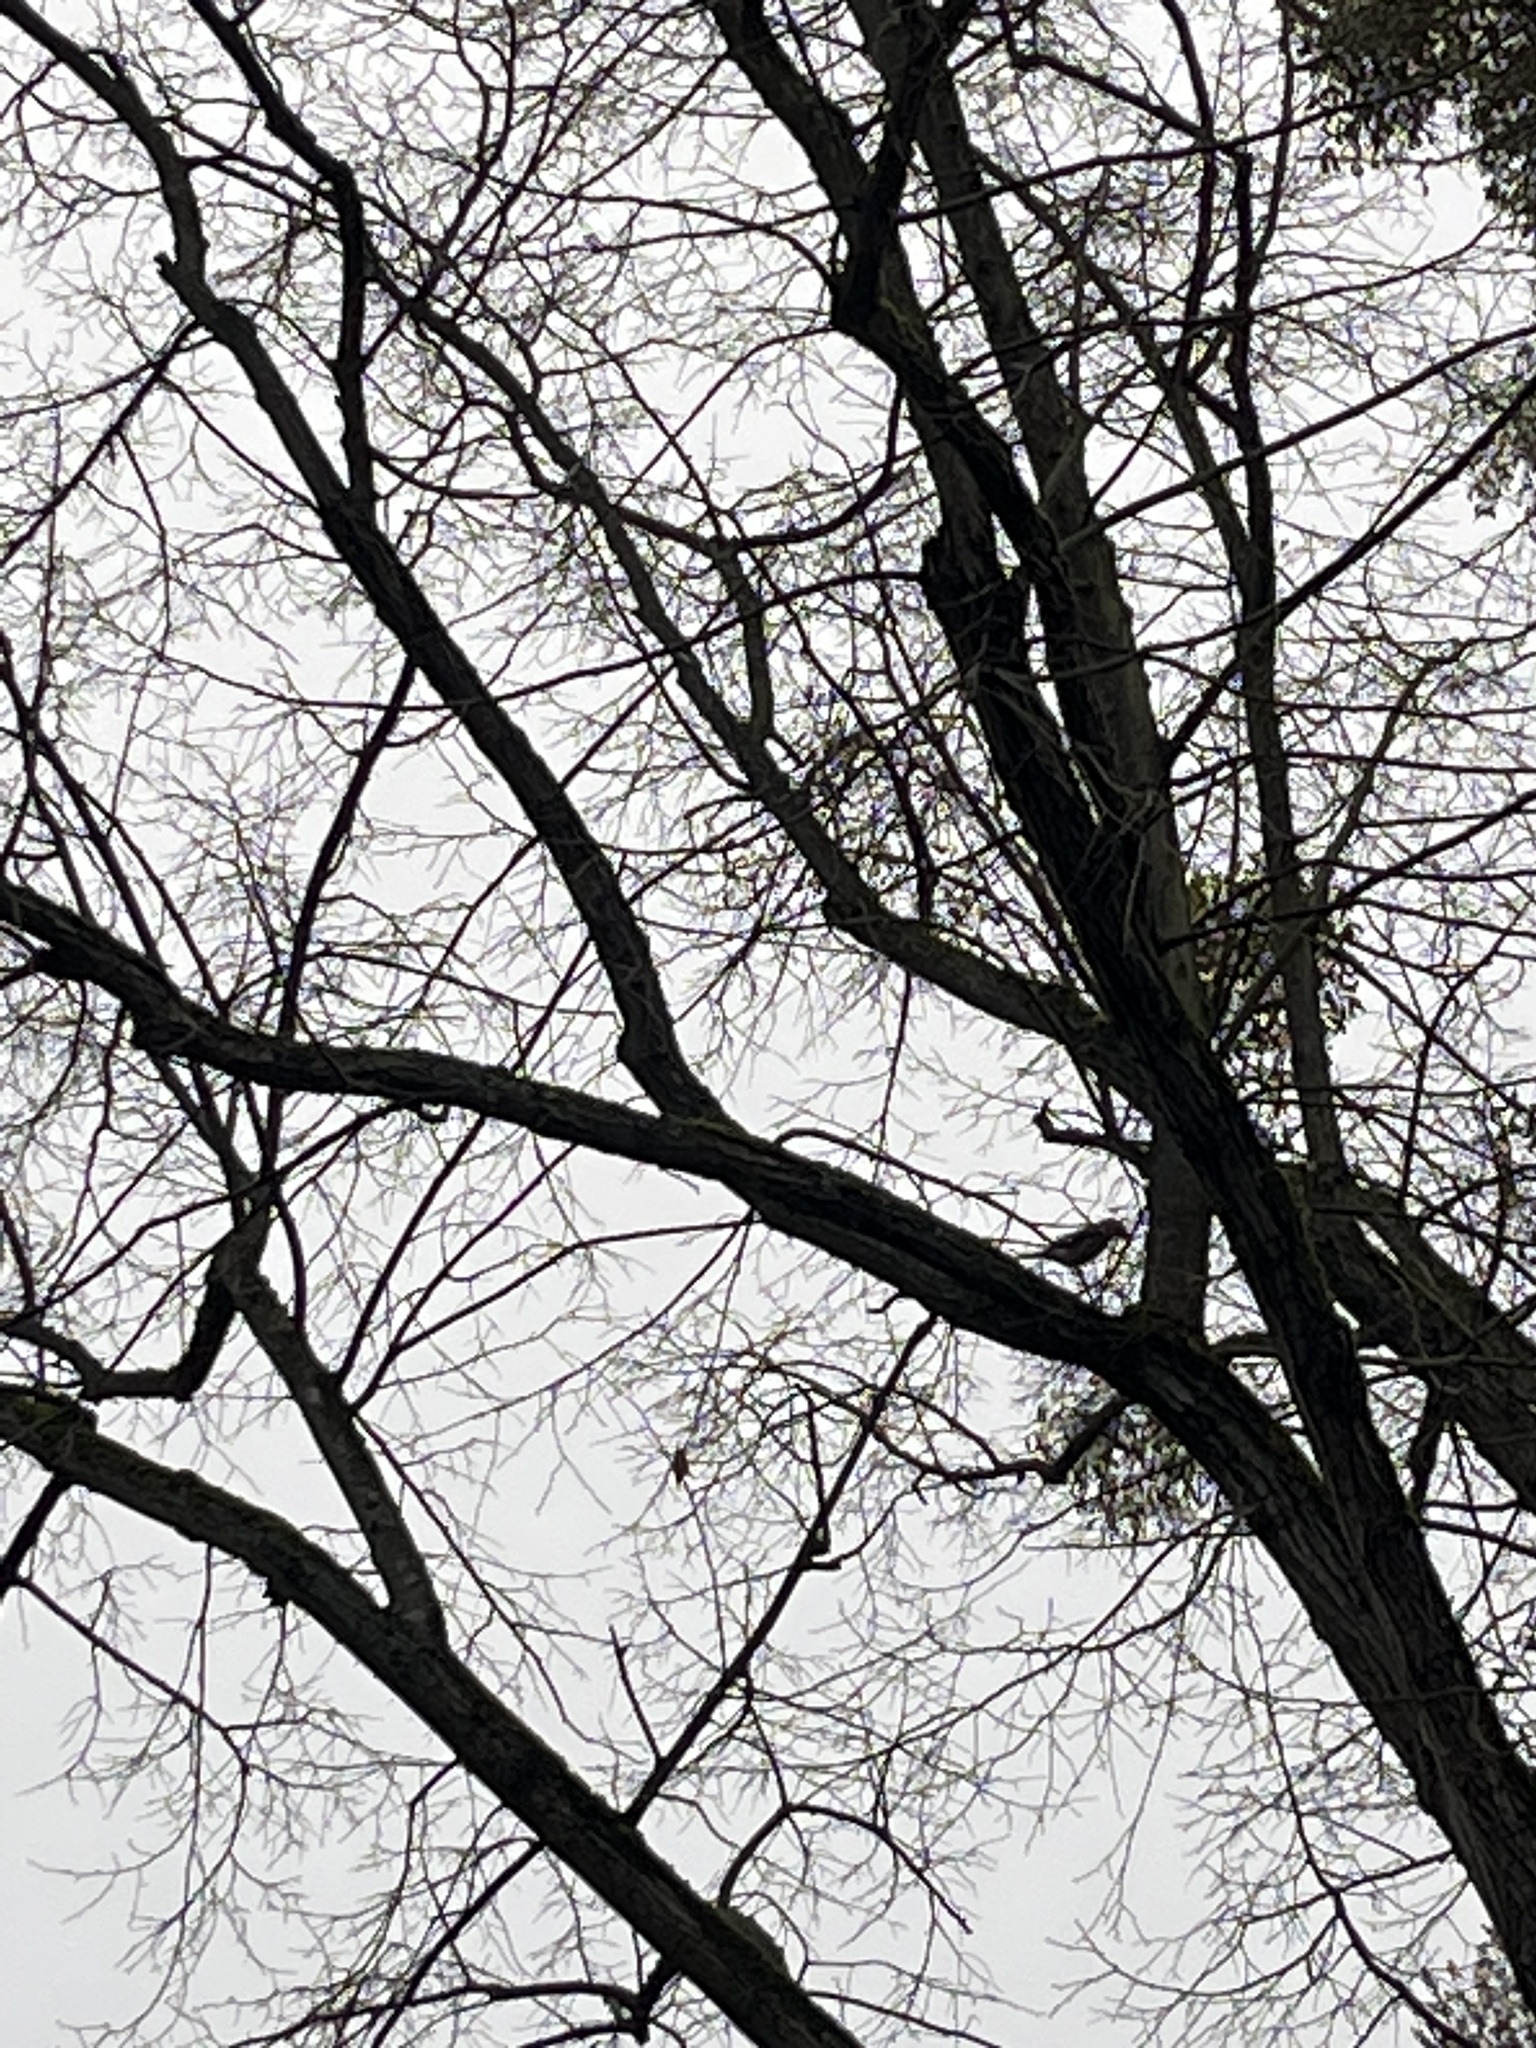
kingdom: Animalia
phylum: Chordata
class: Aves
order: Passeriformes
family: Corvidae
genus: Garrulus
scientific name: Garrulus glandarius
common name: Eurasian jay
